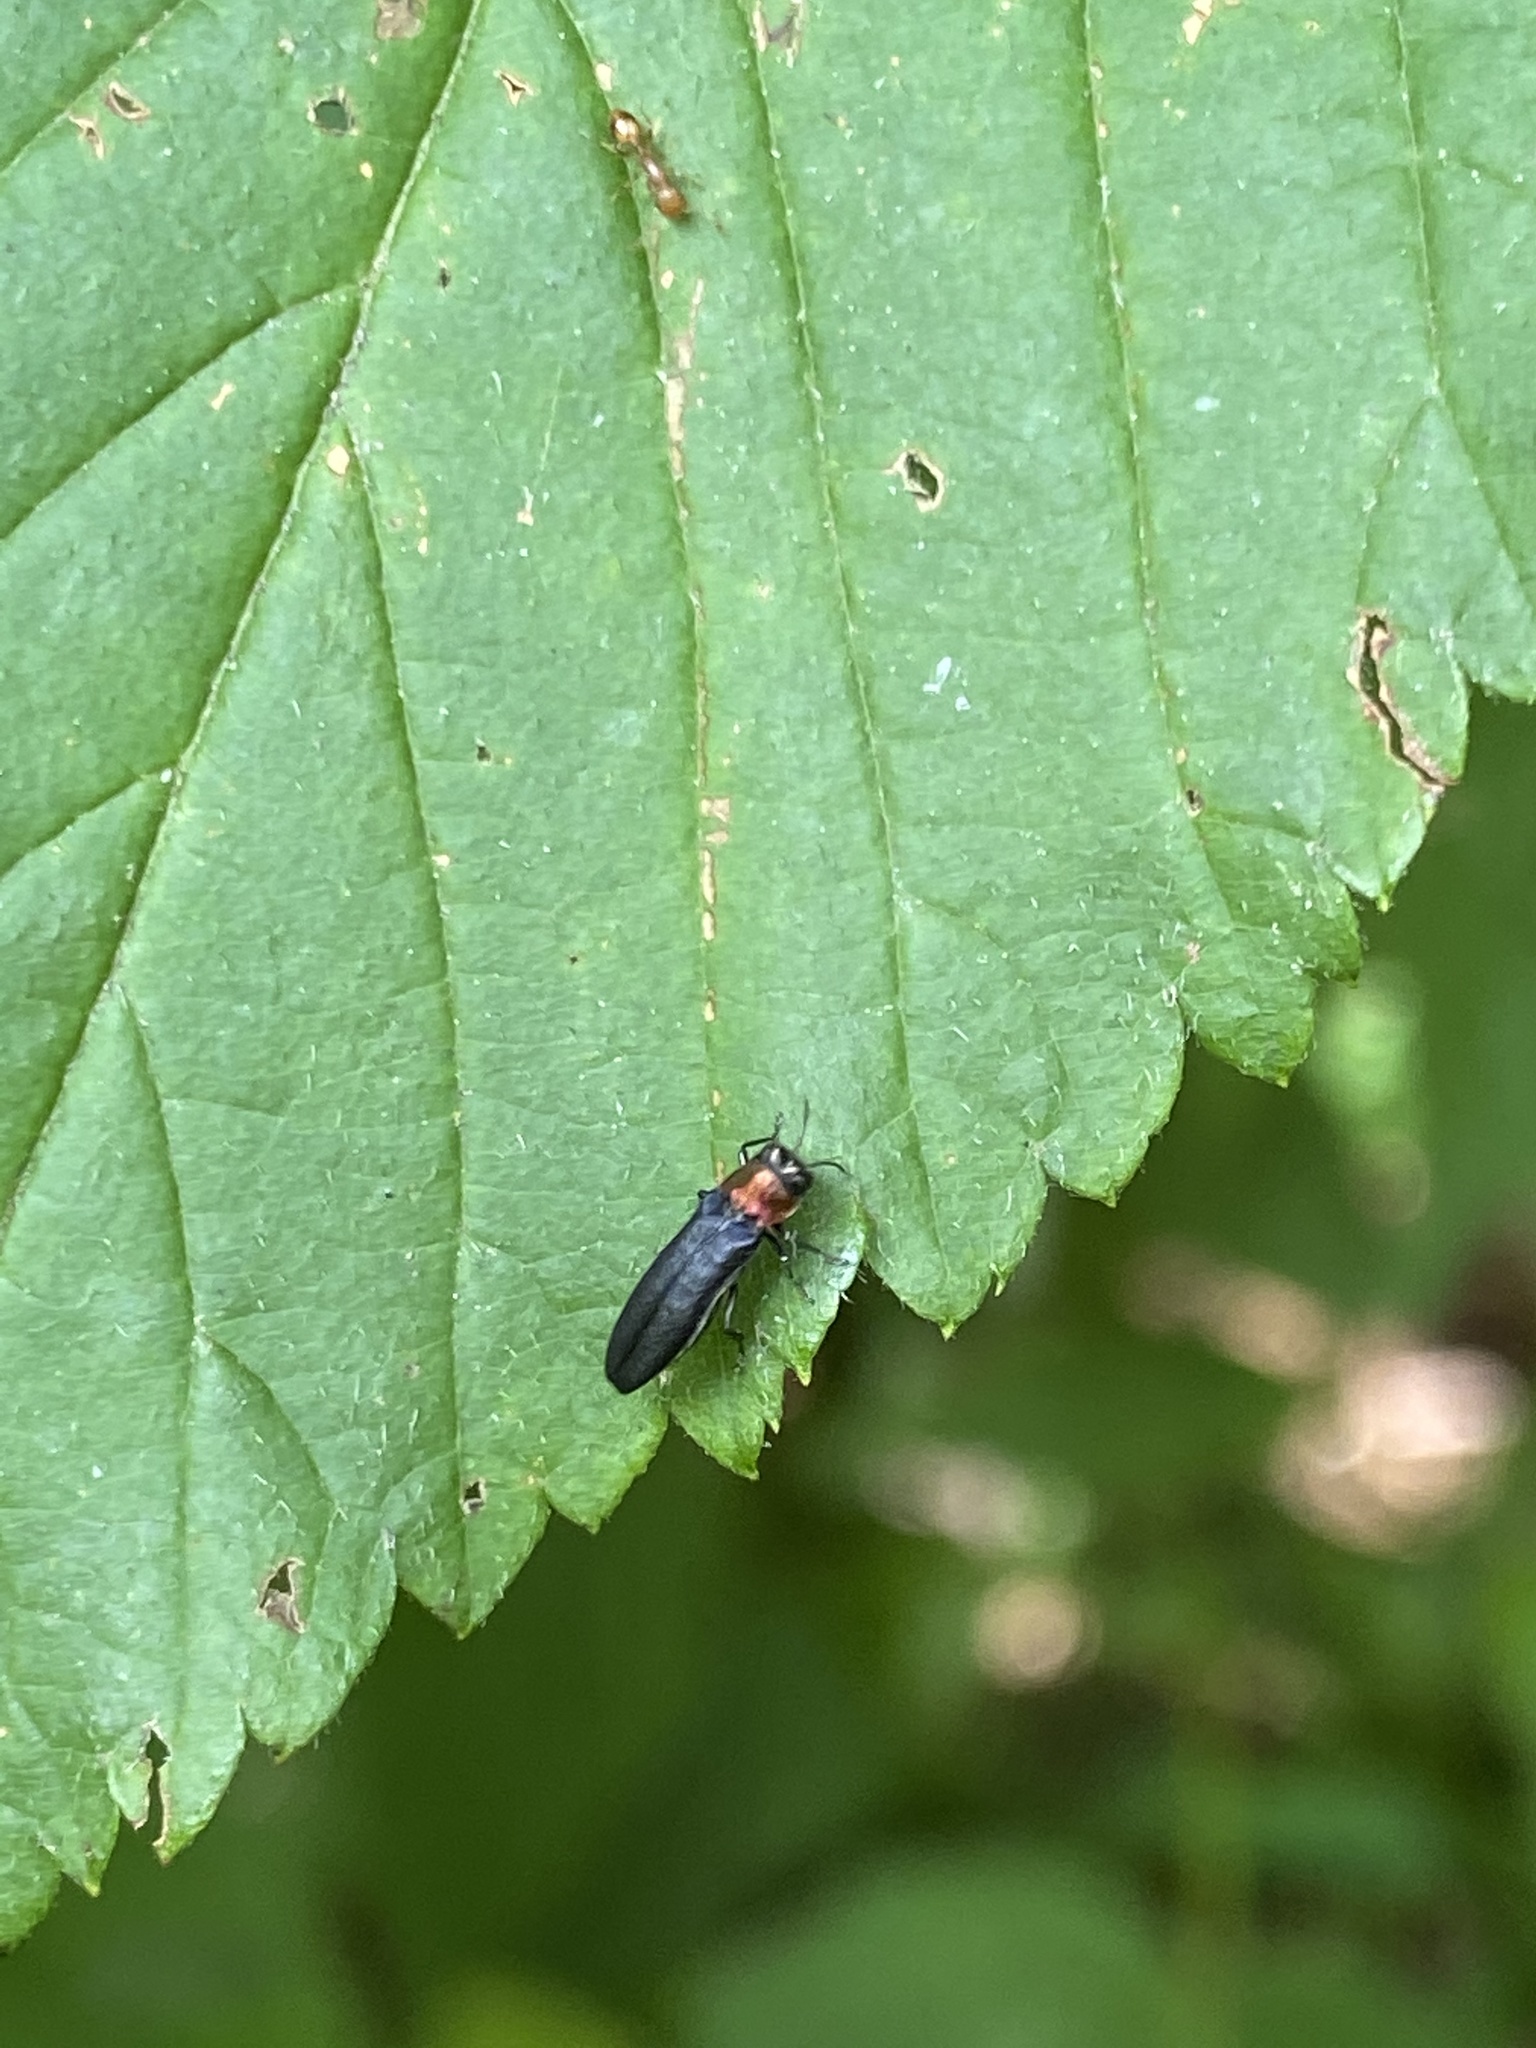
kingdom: Animalia
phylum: Arthropoda
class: Insecta
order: Coleoptera
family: Buprestidae
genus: Agrilus
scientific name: Agrilus ruficollis
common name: Red-necked cane borer beetle
